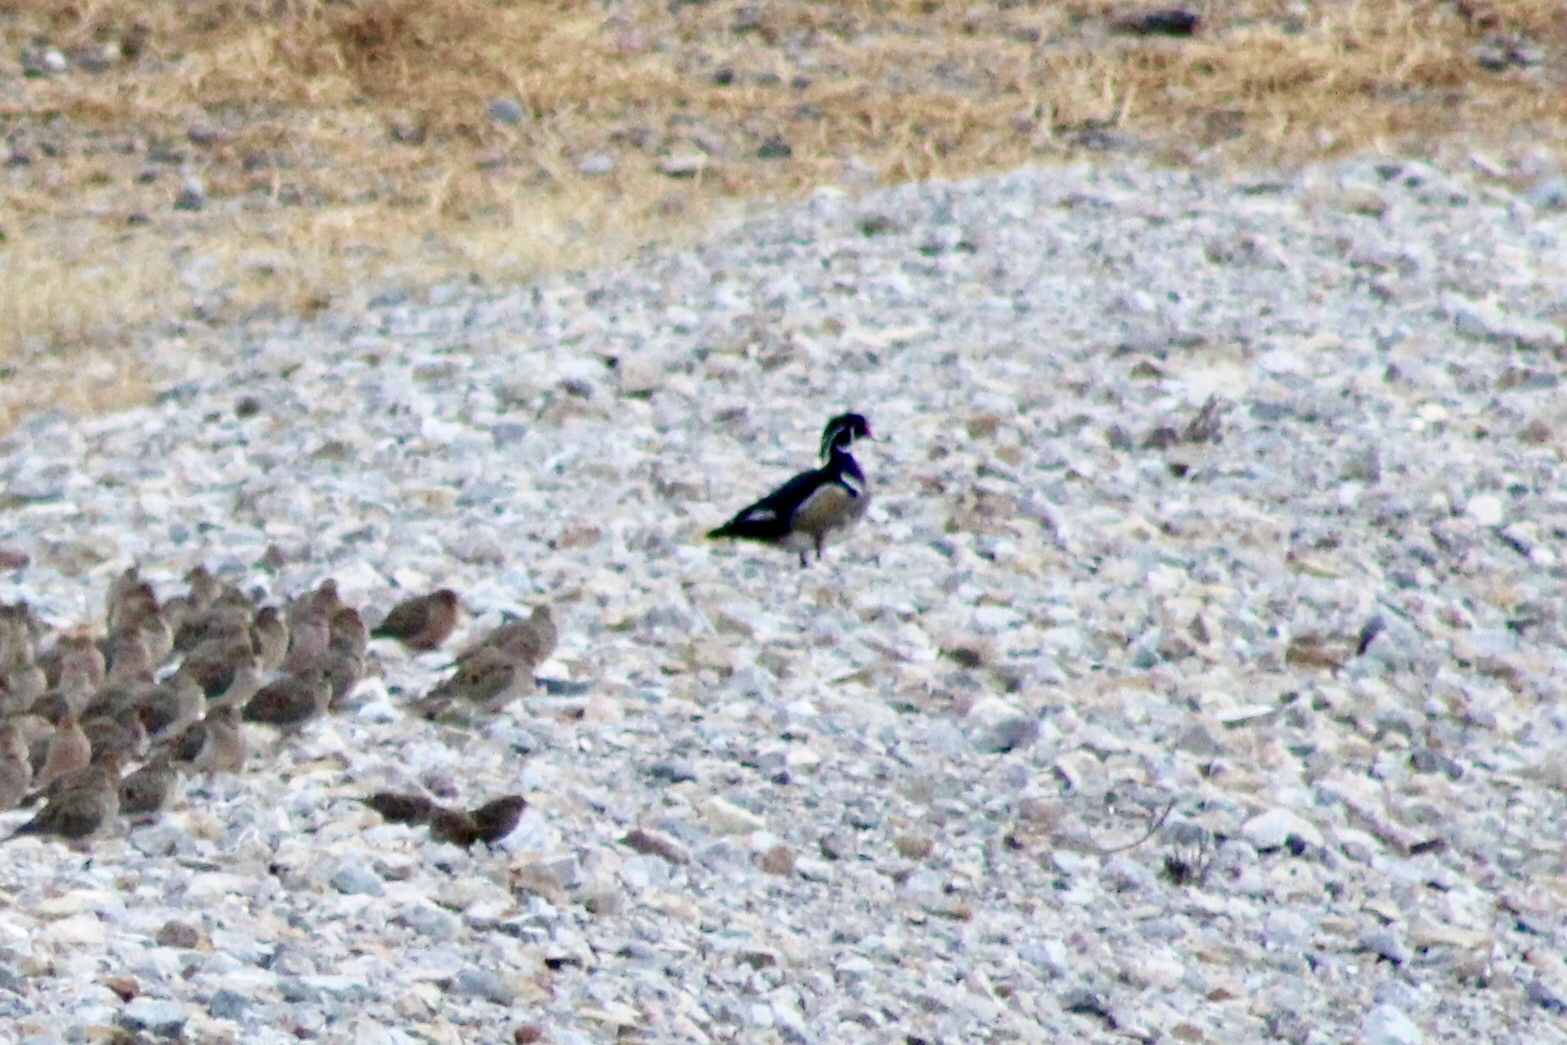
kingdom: Animalia
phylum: Chordata
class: Aves
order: Anseriformes
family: Anatidae
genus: Aix
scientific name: Aix sponsa
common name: Wood duck
